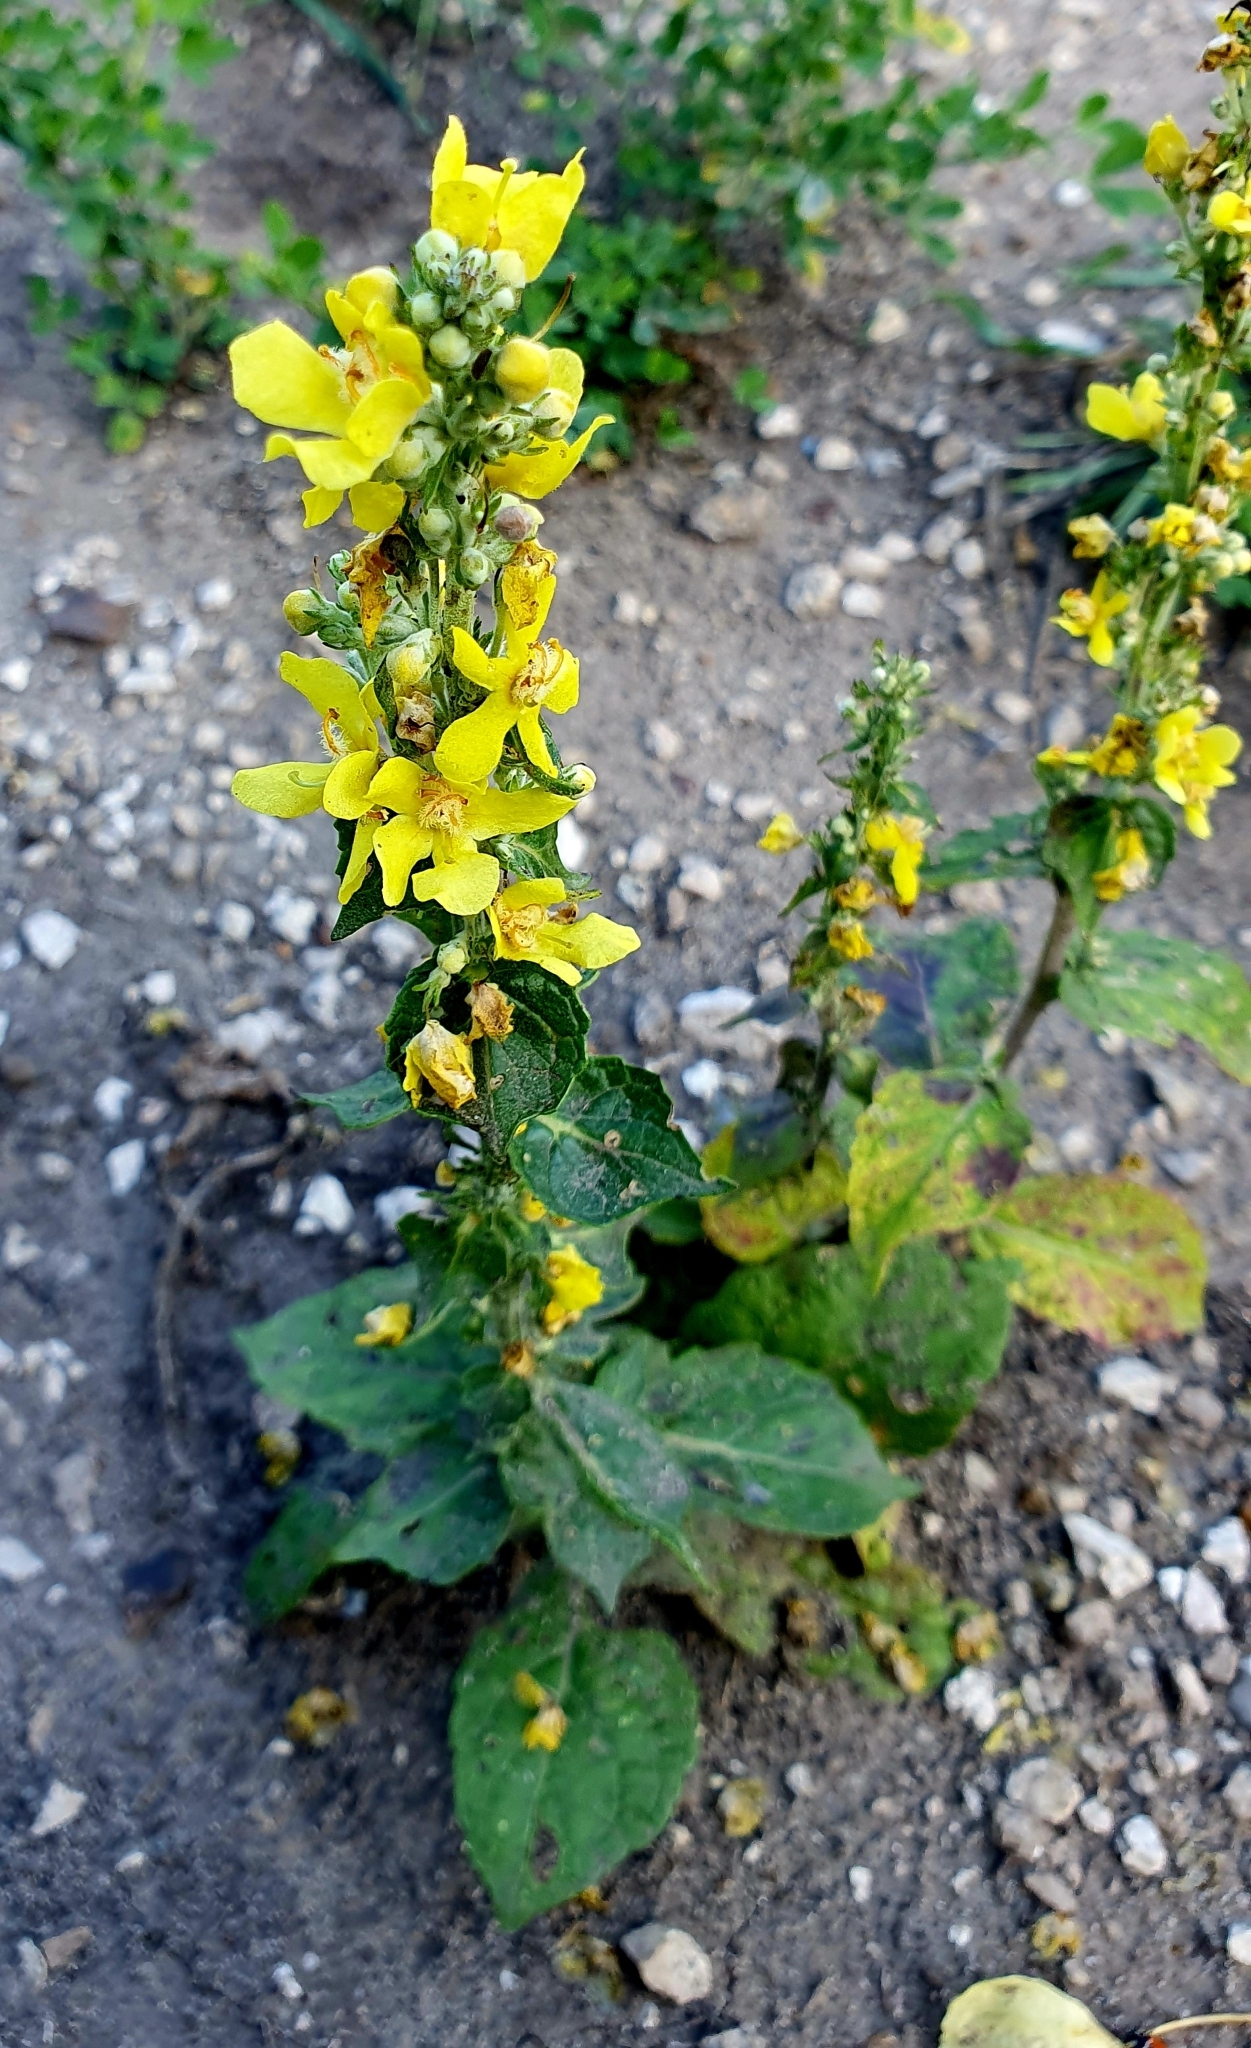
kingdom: Plantae
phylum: Tracheophyta
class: Magnoliopsida
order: Lamiales
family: Scrophulariaceae
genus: Verbascum
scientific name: Verbascum lychnitis
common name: White mullein
